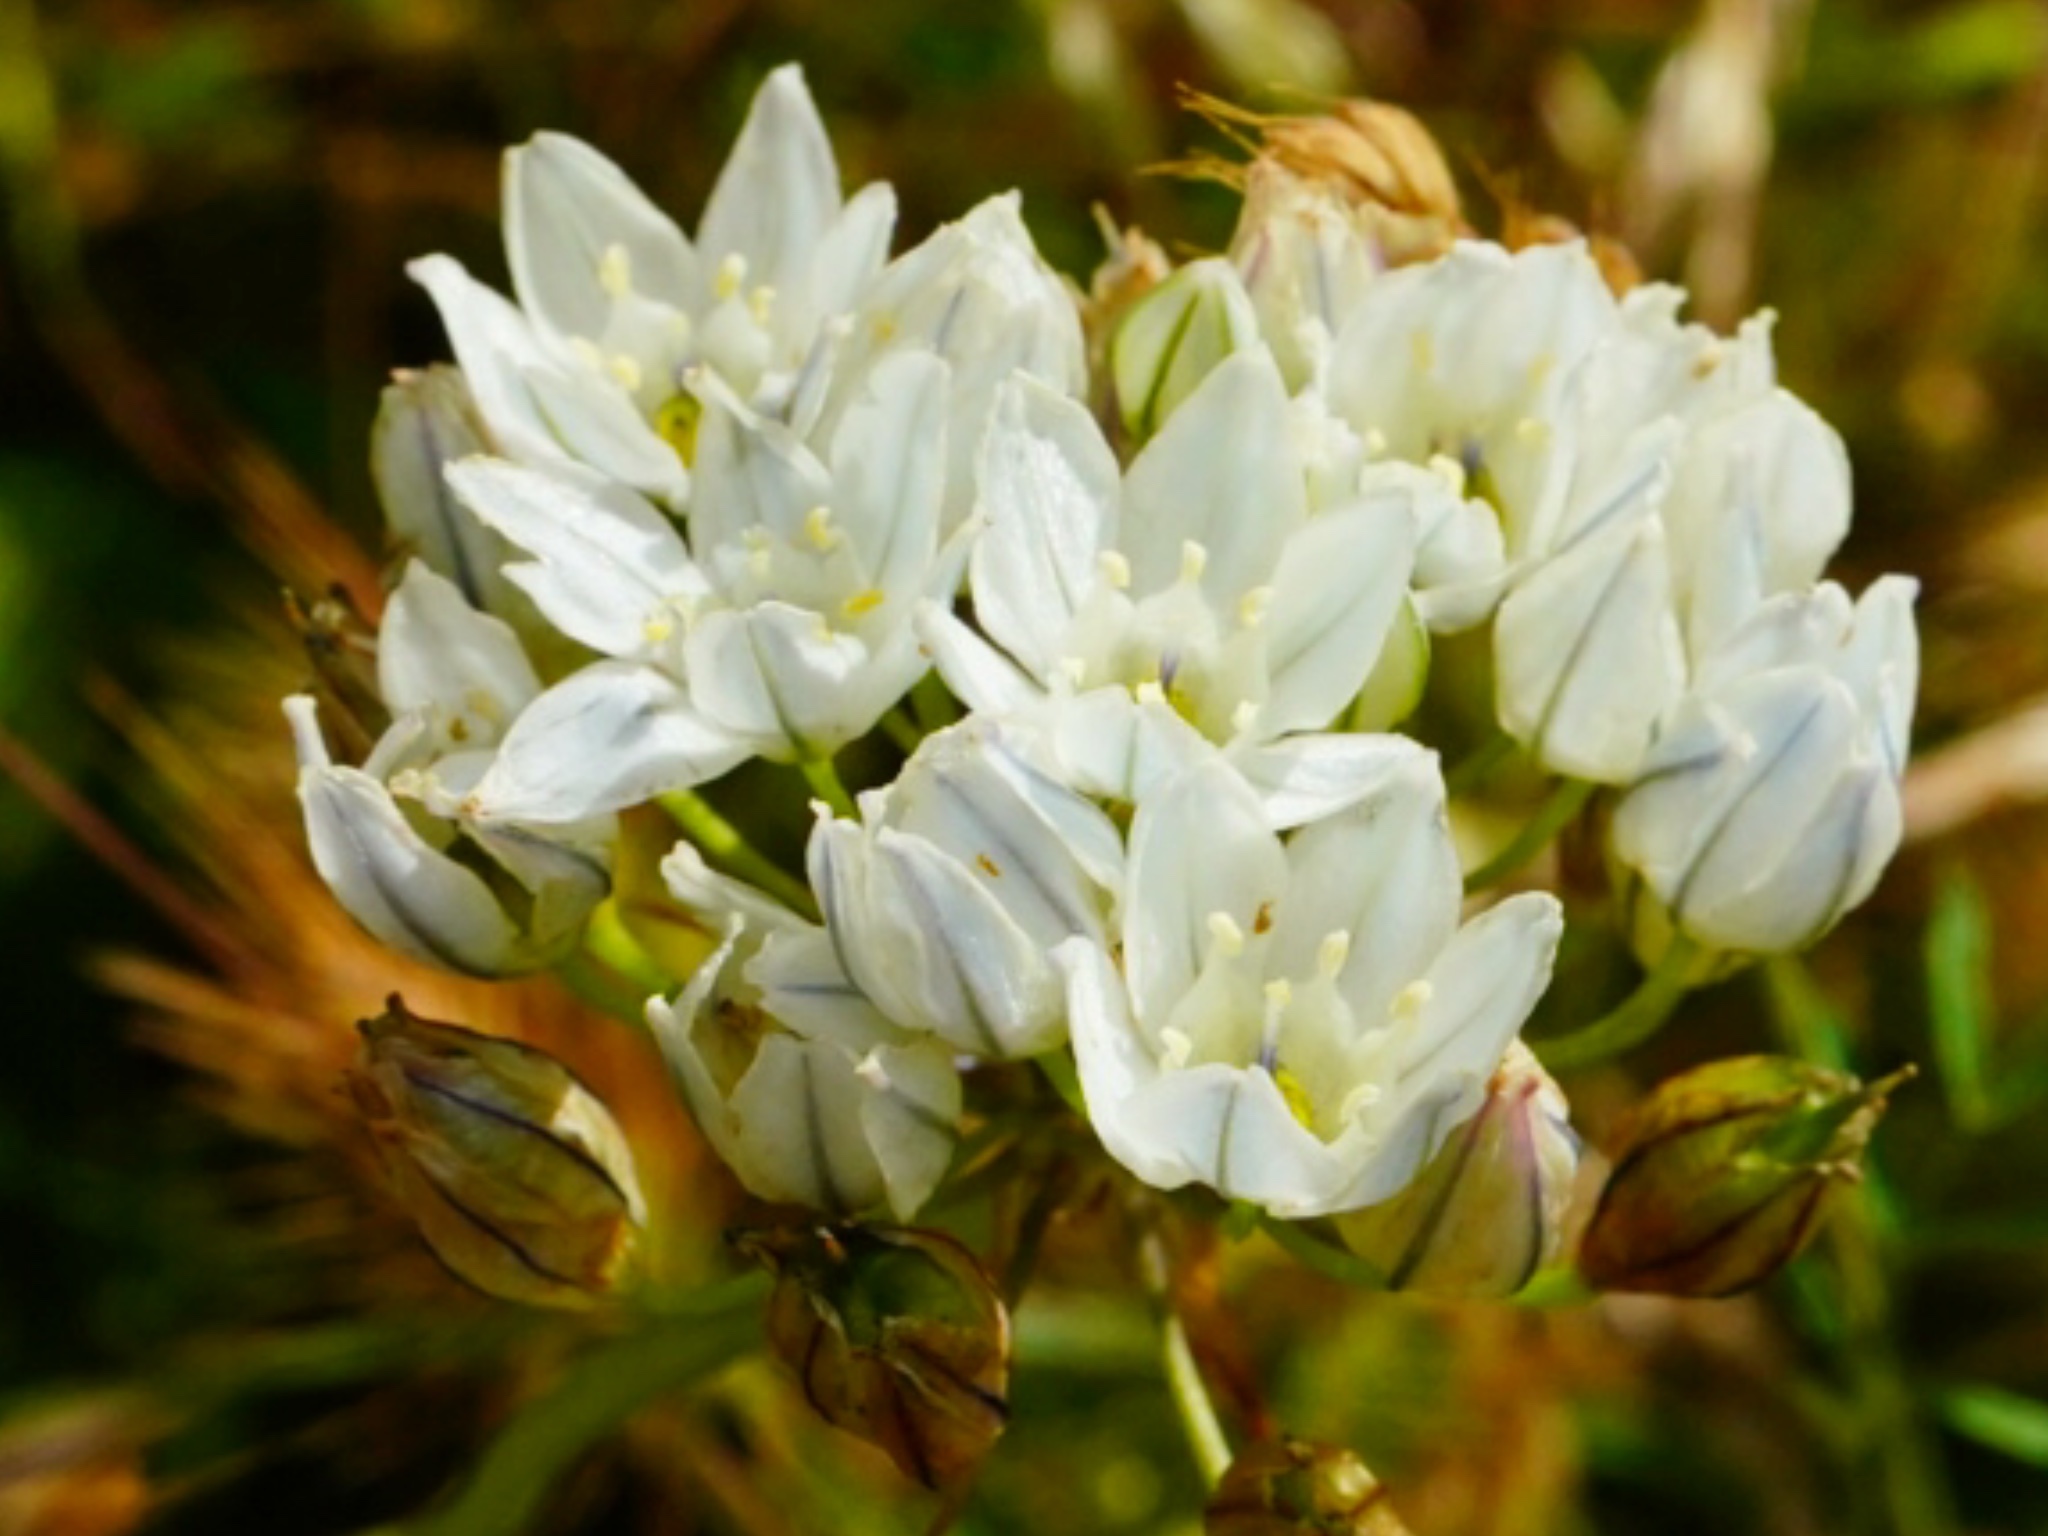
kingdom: Plantae
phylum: Tracheophyta
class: Liliopsida
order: Asparagales
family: Asparagaceae
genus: Triteleia
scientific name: Triteleia hyacinthina
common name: White brodiaea
